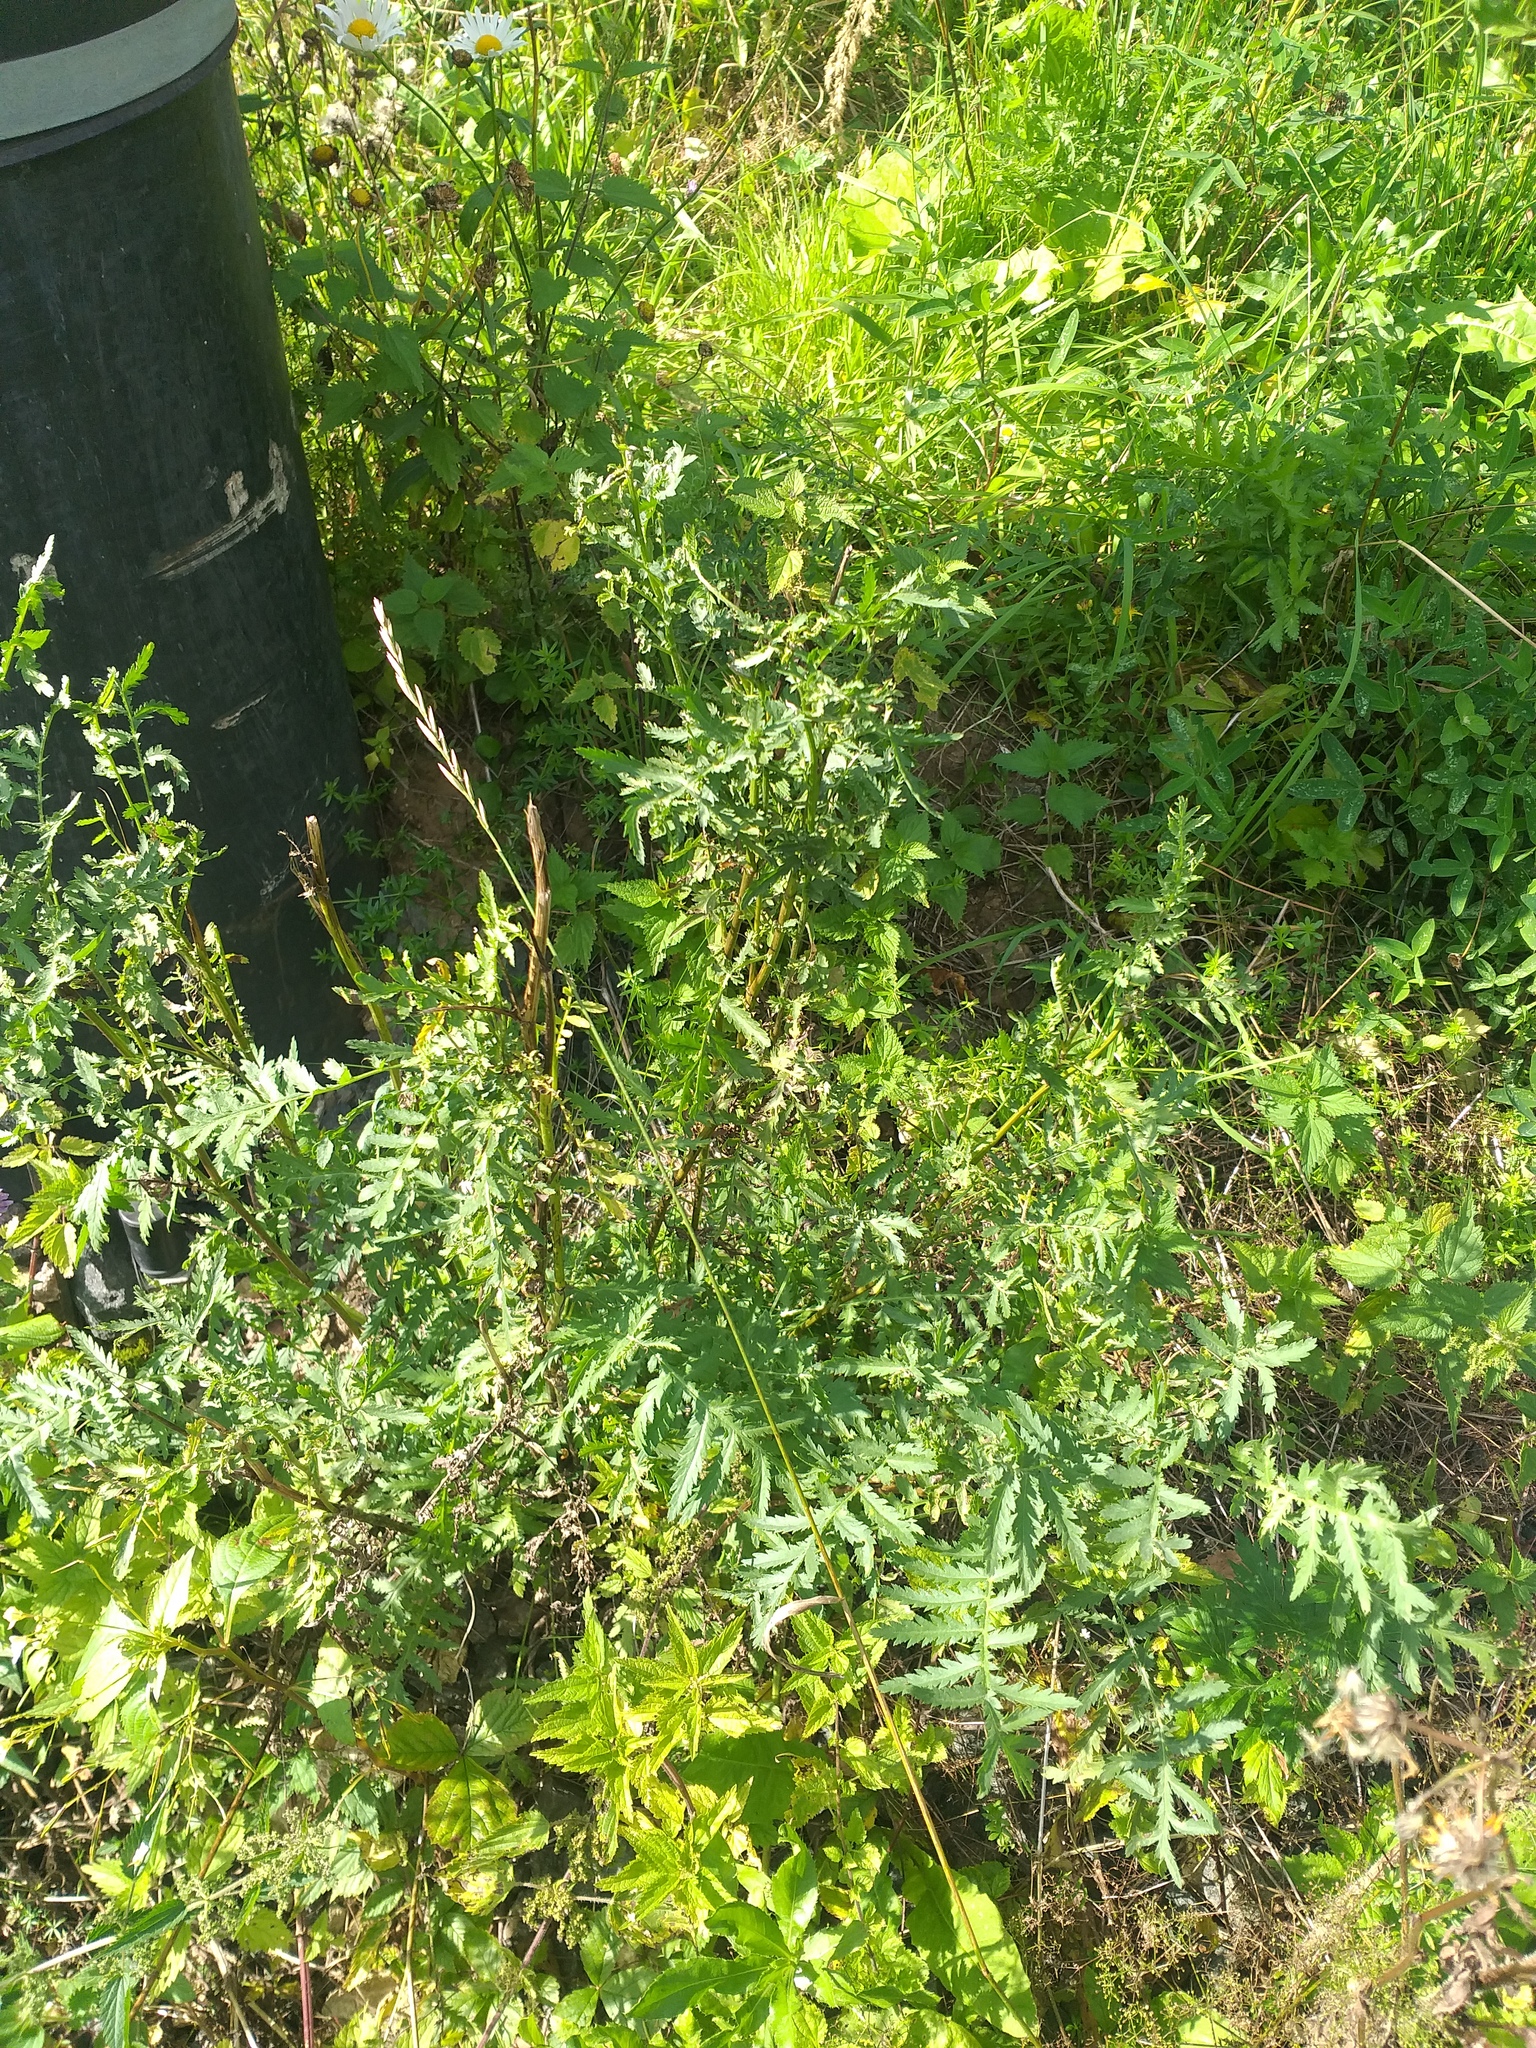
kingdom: Plantae
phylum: Tracheophyta
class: Magnoliopsida
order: Asterales
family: Asteraceae
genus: Tanacetum
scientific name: Tanacetum vulgare
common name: Common tansy
